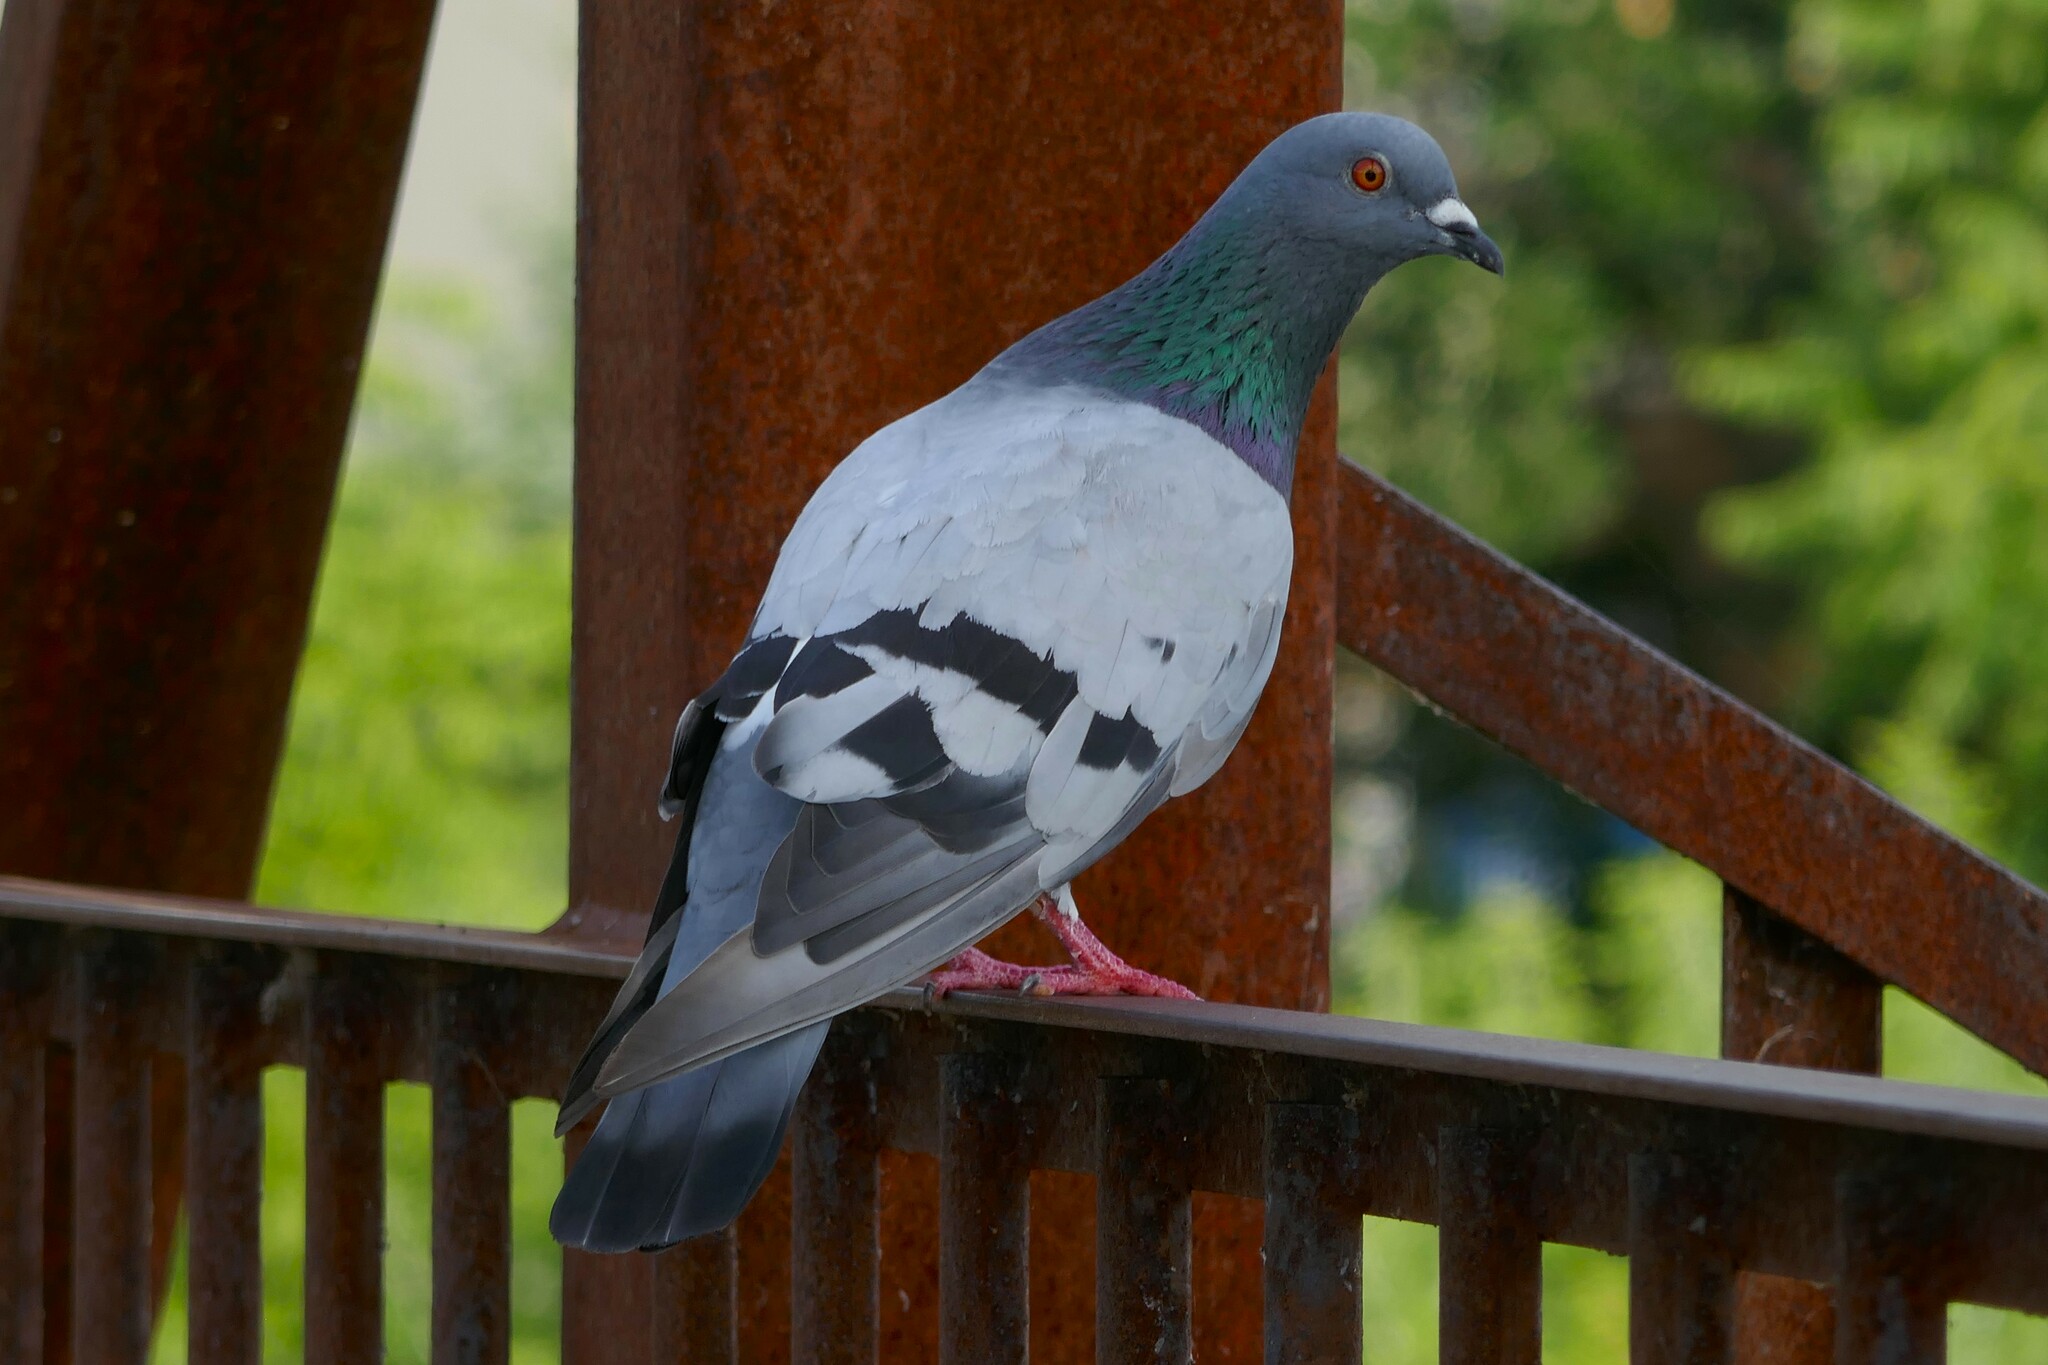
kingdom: Animalia
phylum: Chordata
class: Aves
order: Columbiformes
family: Columbidae
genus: Columba
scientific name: Columba livia
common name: Rock pigeon
